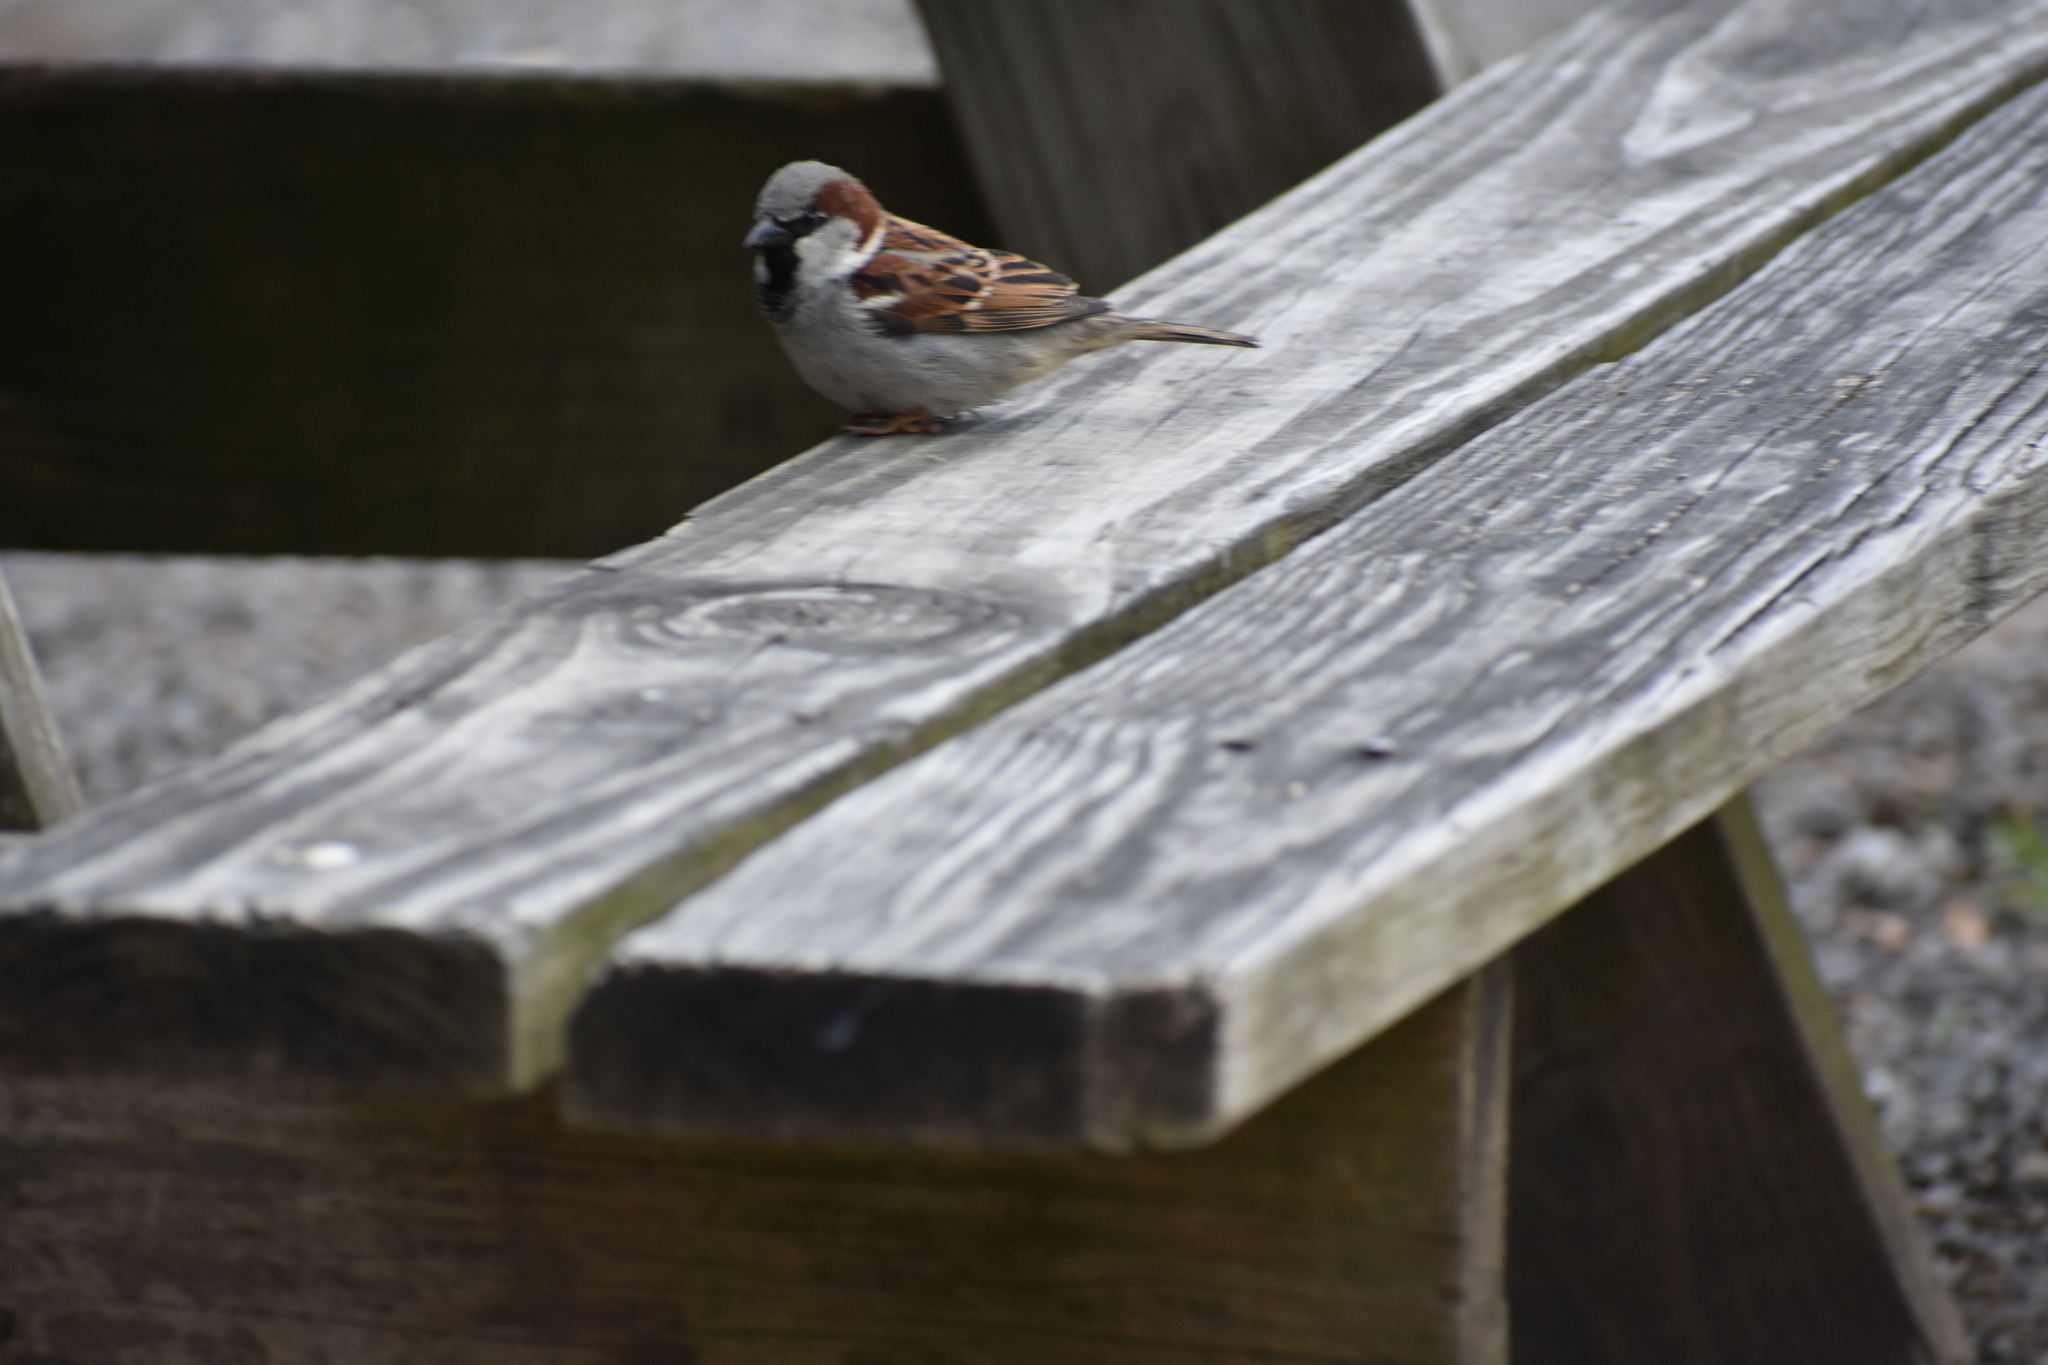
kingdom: Animalia
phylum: Chordata
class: Aves
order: Passeriformes
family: Passeridae
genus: Passer
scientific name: Passer domesticus
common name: House sparrow
